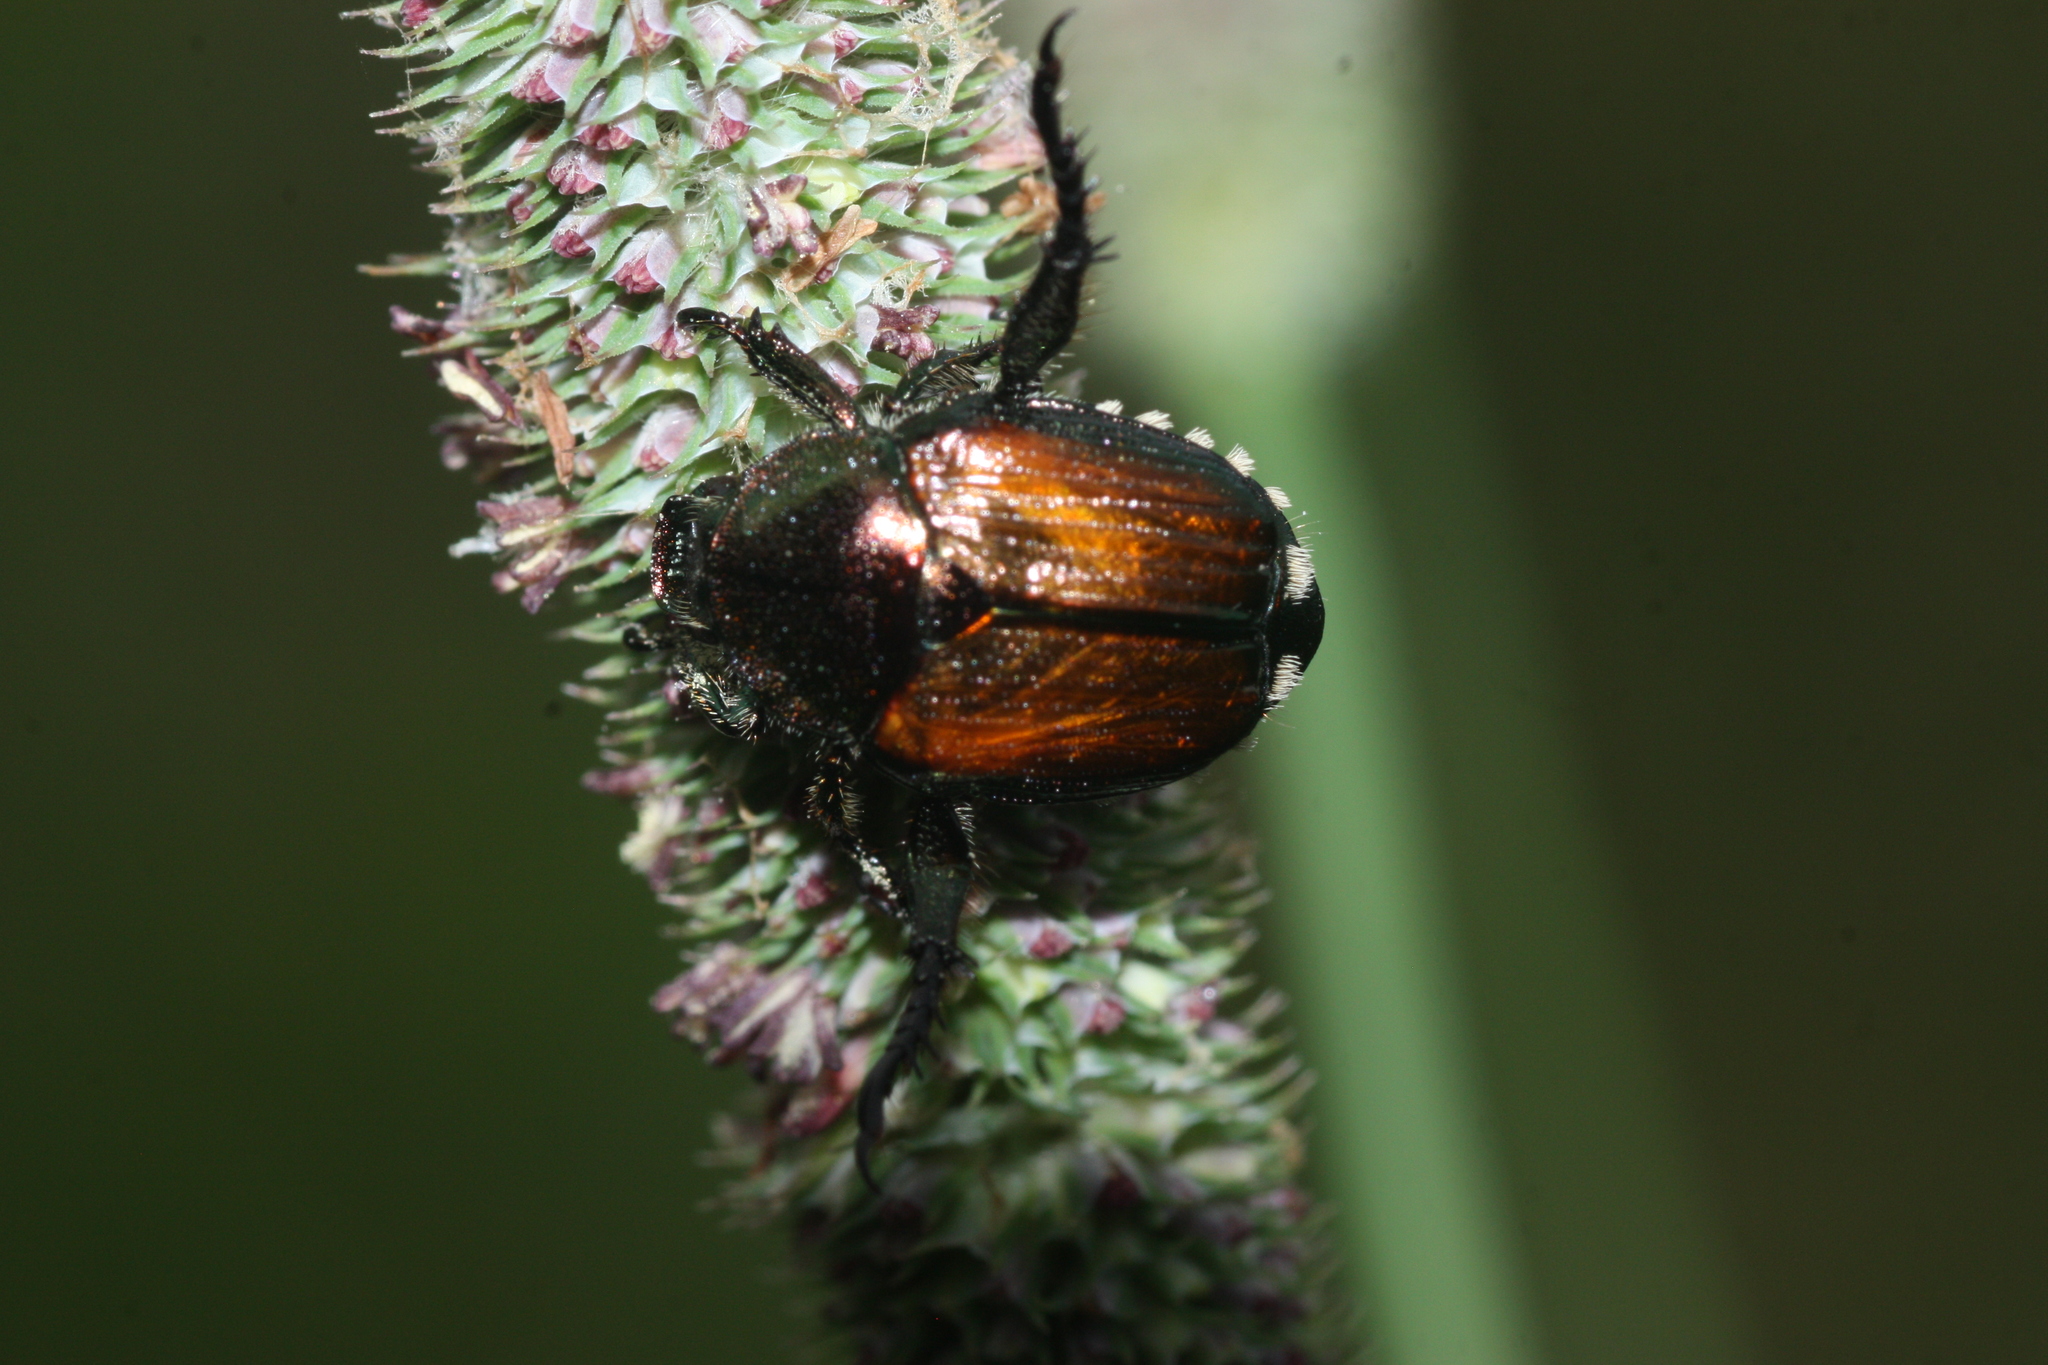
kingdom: Animalia
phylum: Arthropoda
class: Insecta
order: Coleoptera
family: Scarabaeidae
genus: Popillia
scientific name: Popillia japonica
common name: Japanese beetle
